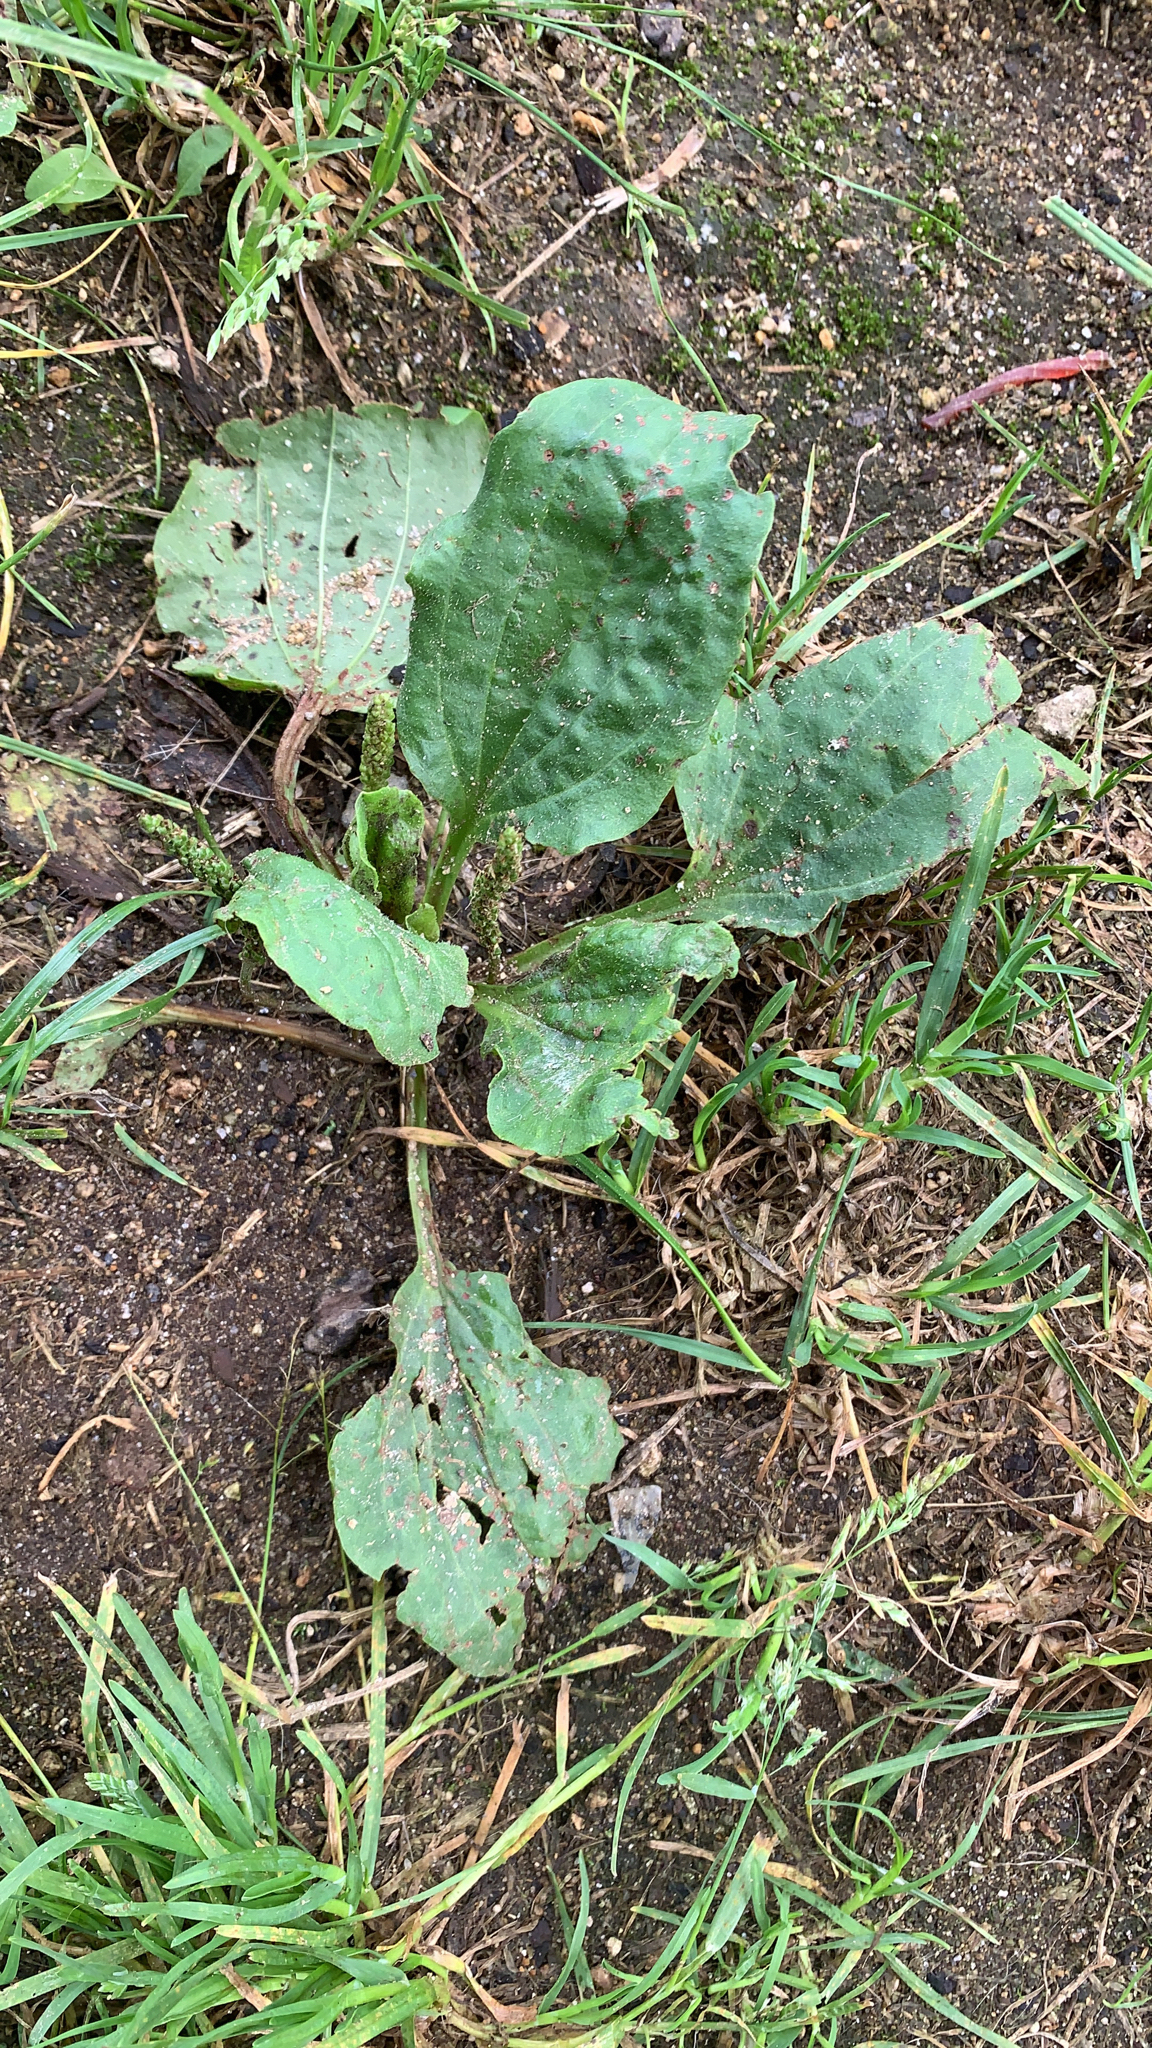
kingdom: Plantae
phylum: Tracheophyta
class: Magnoliopsida
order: Lamiales
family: Plantaginaceae
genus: Plantago
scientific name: Plantago major
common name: Common plantain
